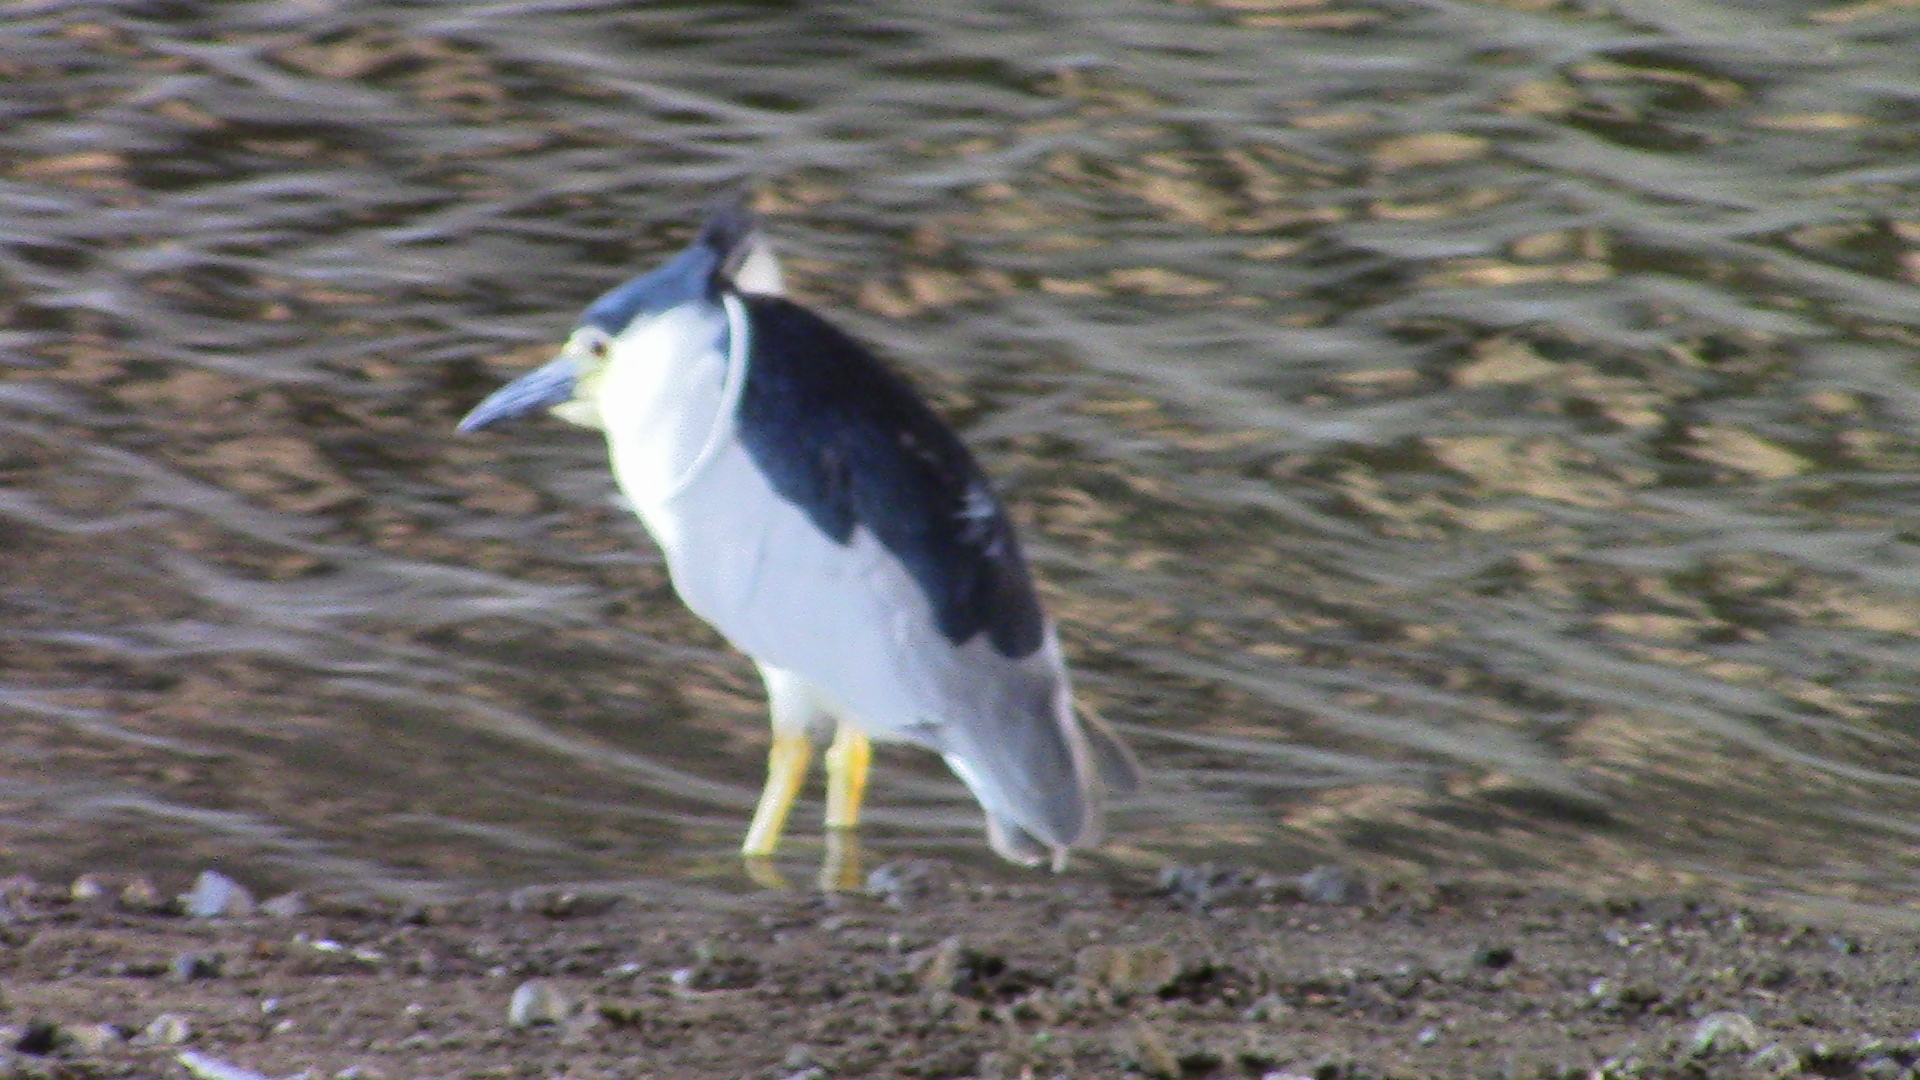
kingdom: Animalia
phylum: Chordata
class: Aves
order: Pelecaniformes
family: Ardeidae
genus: Nycticorax
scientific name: Nycticorax nycticorax
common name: Black-crowned night heron
